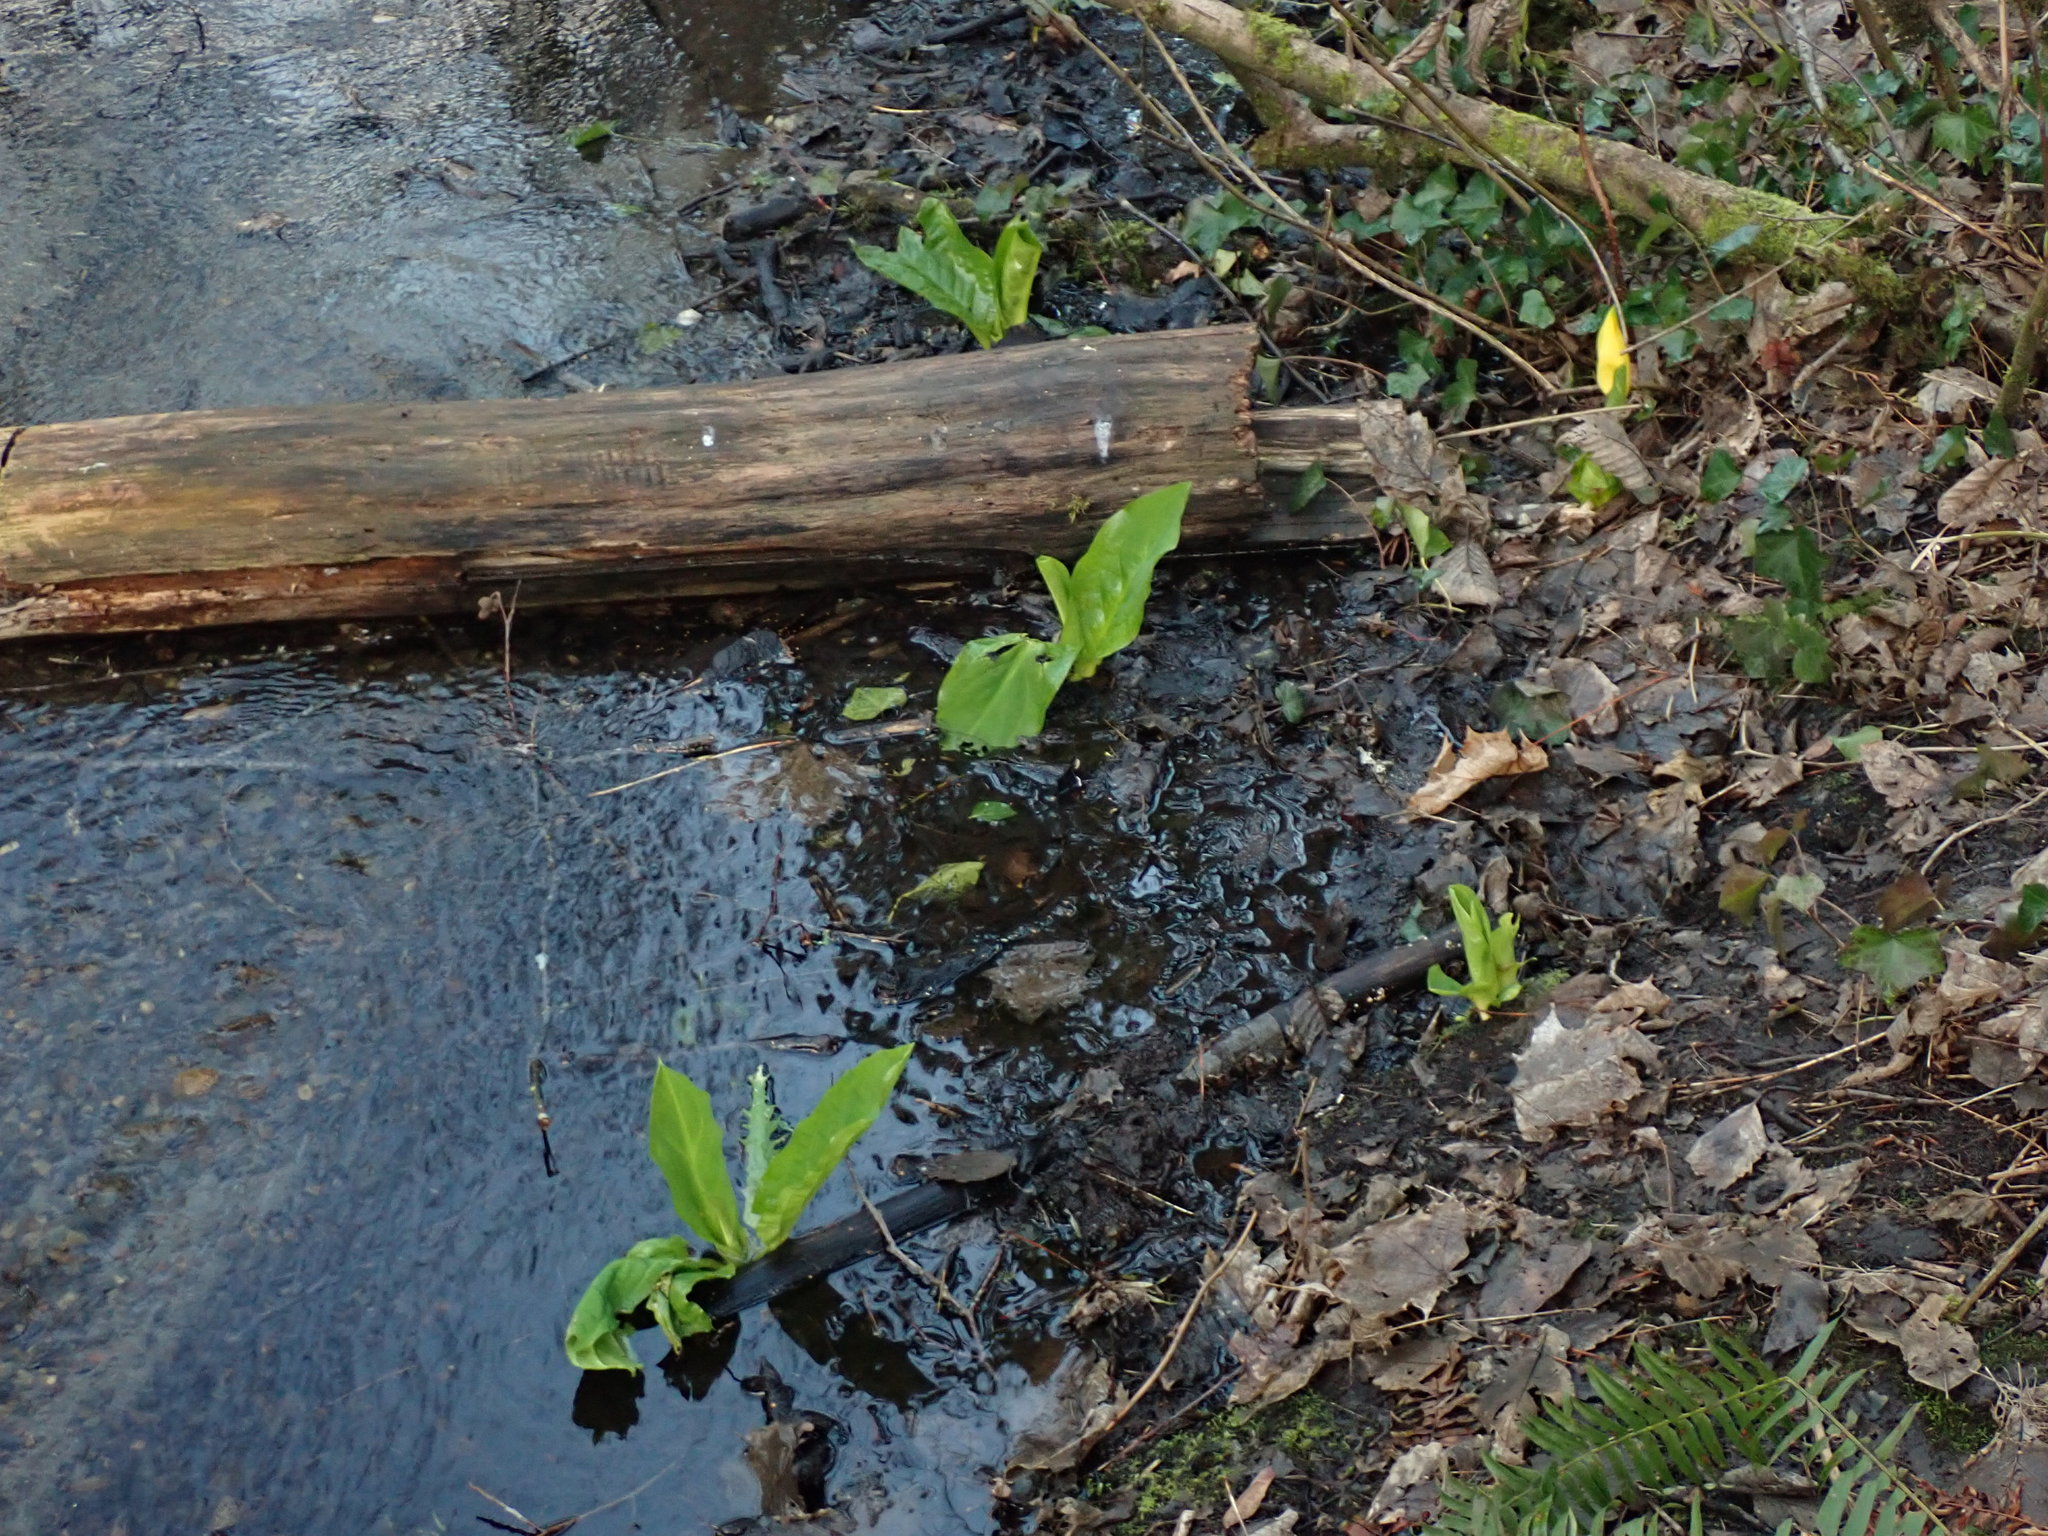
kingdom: Plantae
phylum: Tracheophyta
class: Liliopsida
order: Alismatales
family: Araceae
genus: Lysichiton
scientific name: Lysichiton americanus
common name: American skunk cabbage
